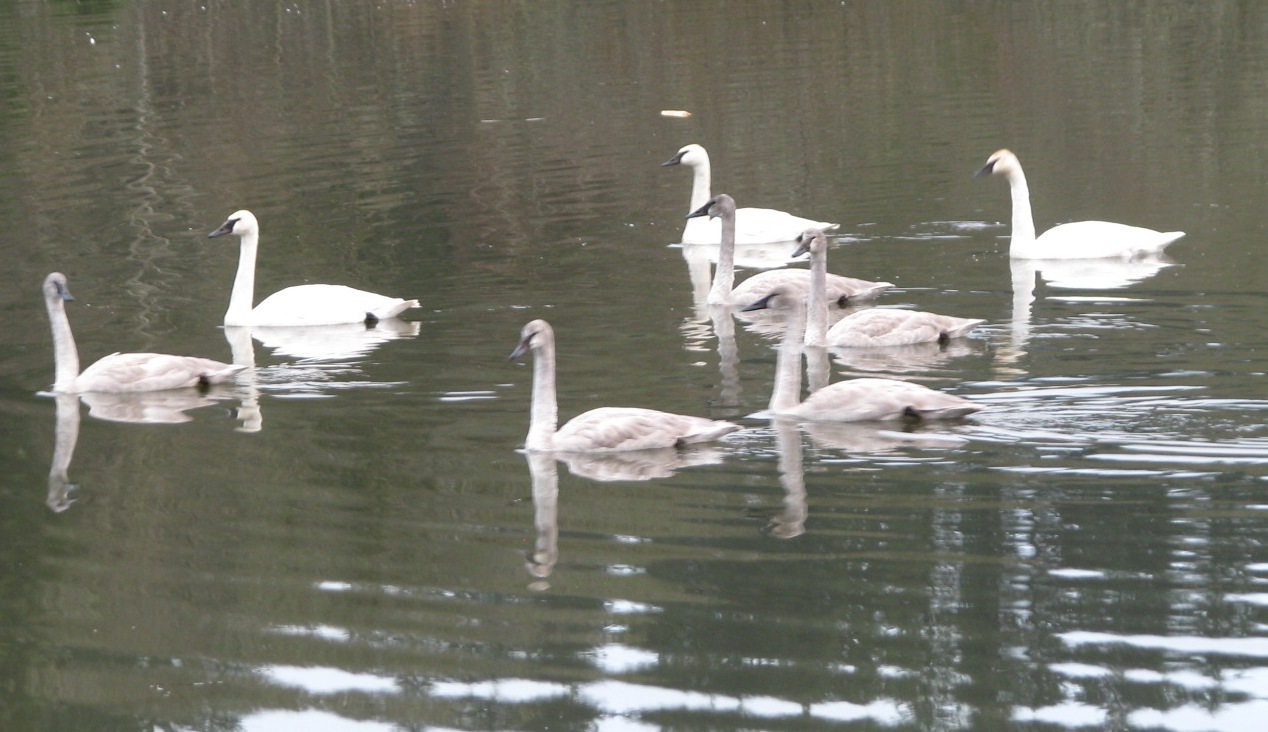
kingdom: Animalia
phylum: Chordata
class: Aves
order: Anseriformes
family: Anatidae
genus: Cygnus
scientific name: Cygnus buccinator
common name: Trumpeter swan
